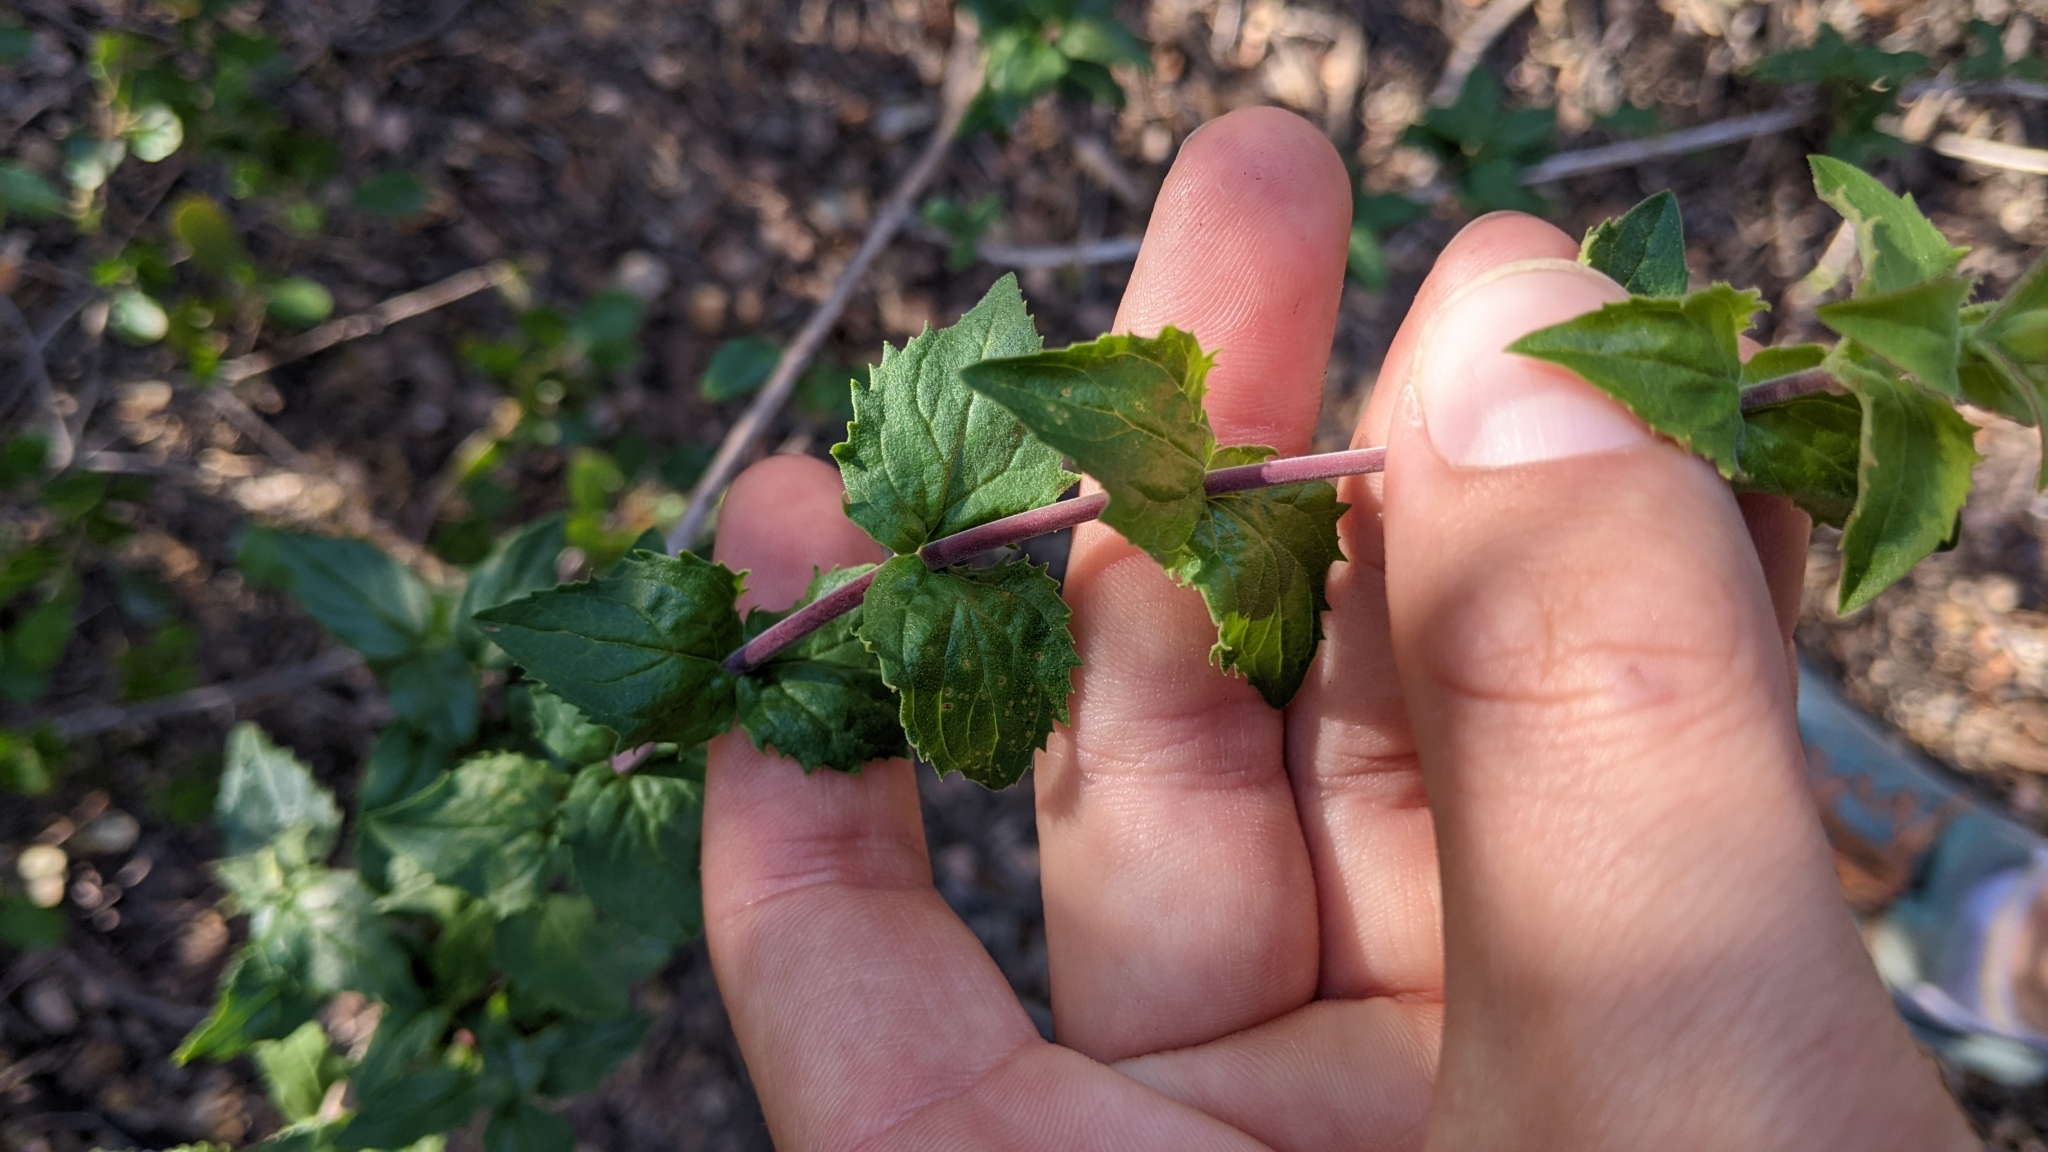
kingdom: Plantae
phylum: Tracheophyta
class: Magnoliopsida
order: Lamiales
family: Plantaginaceae
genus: Keckiella
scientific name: Keckiella cordifolia
